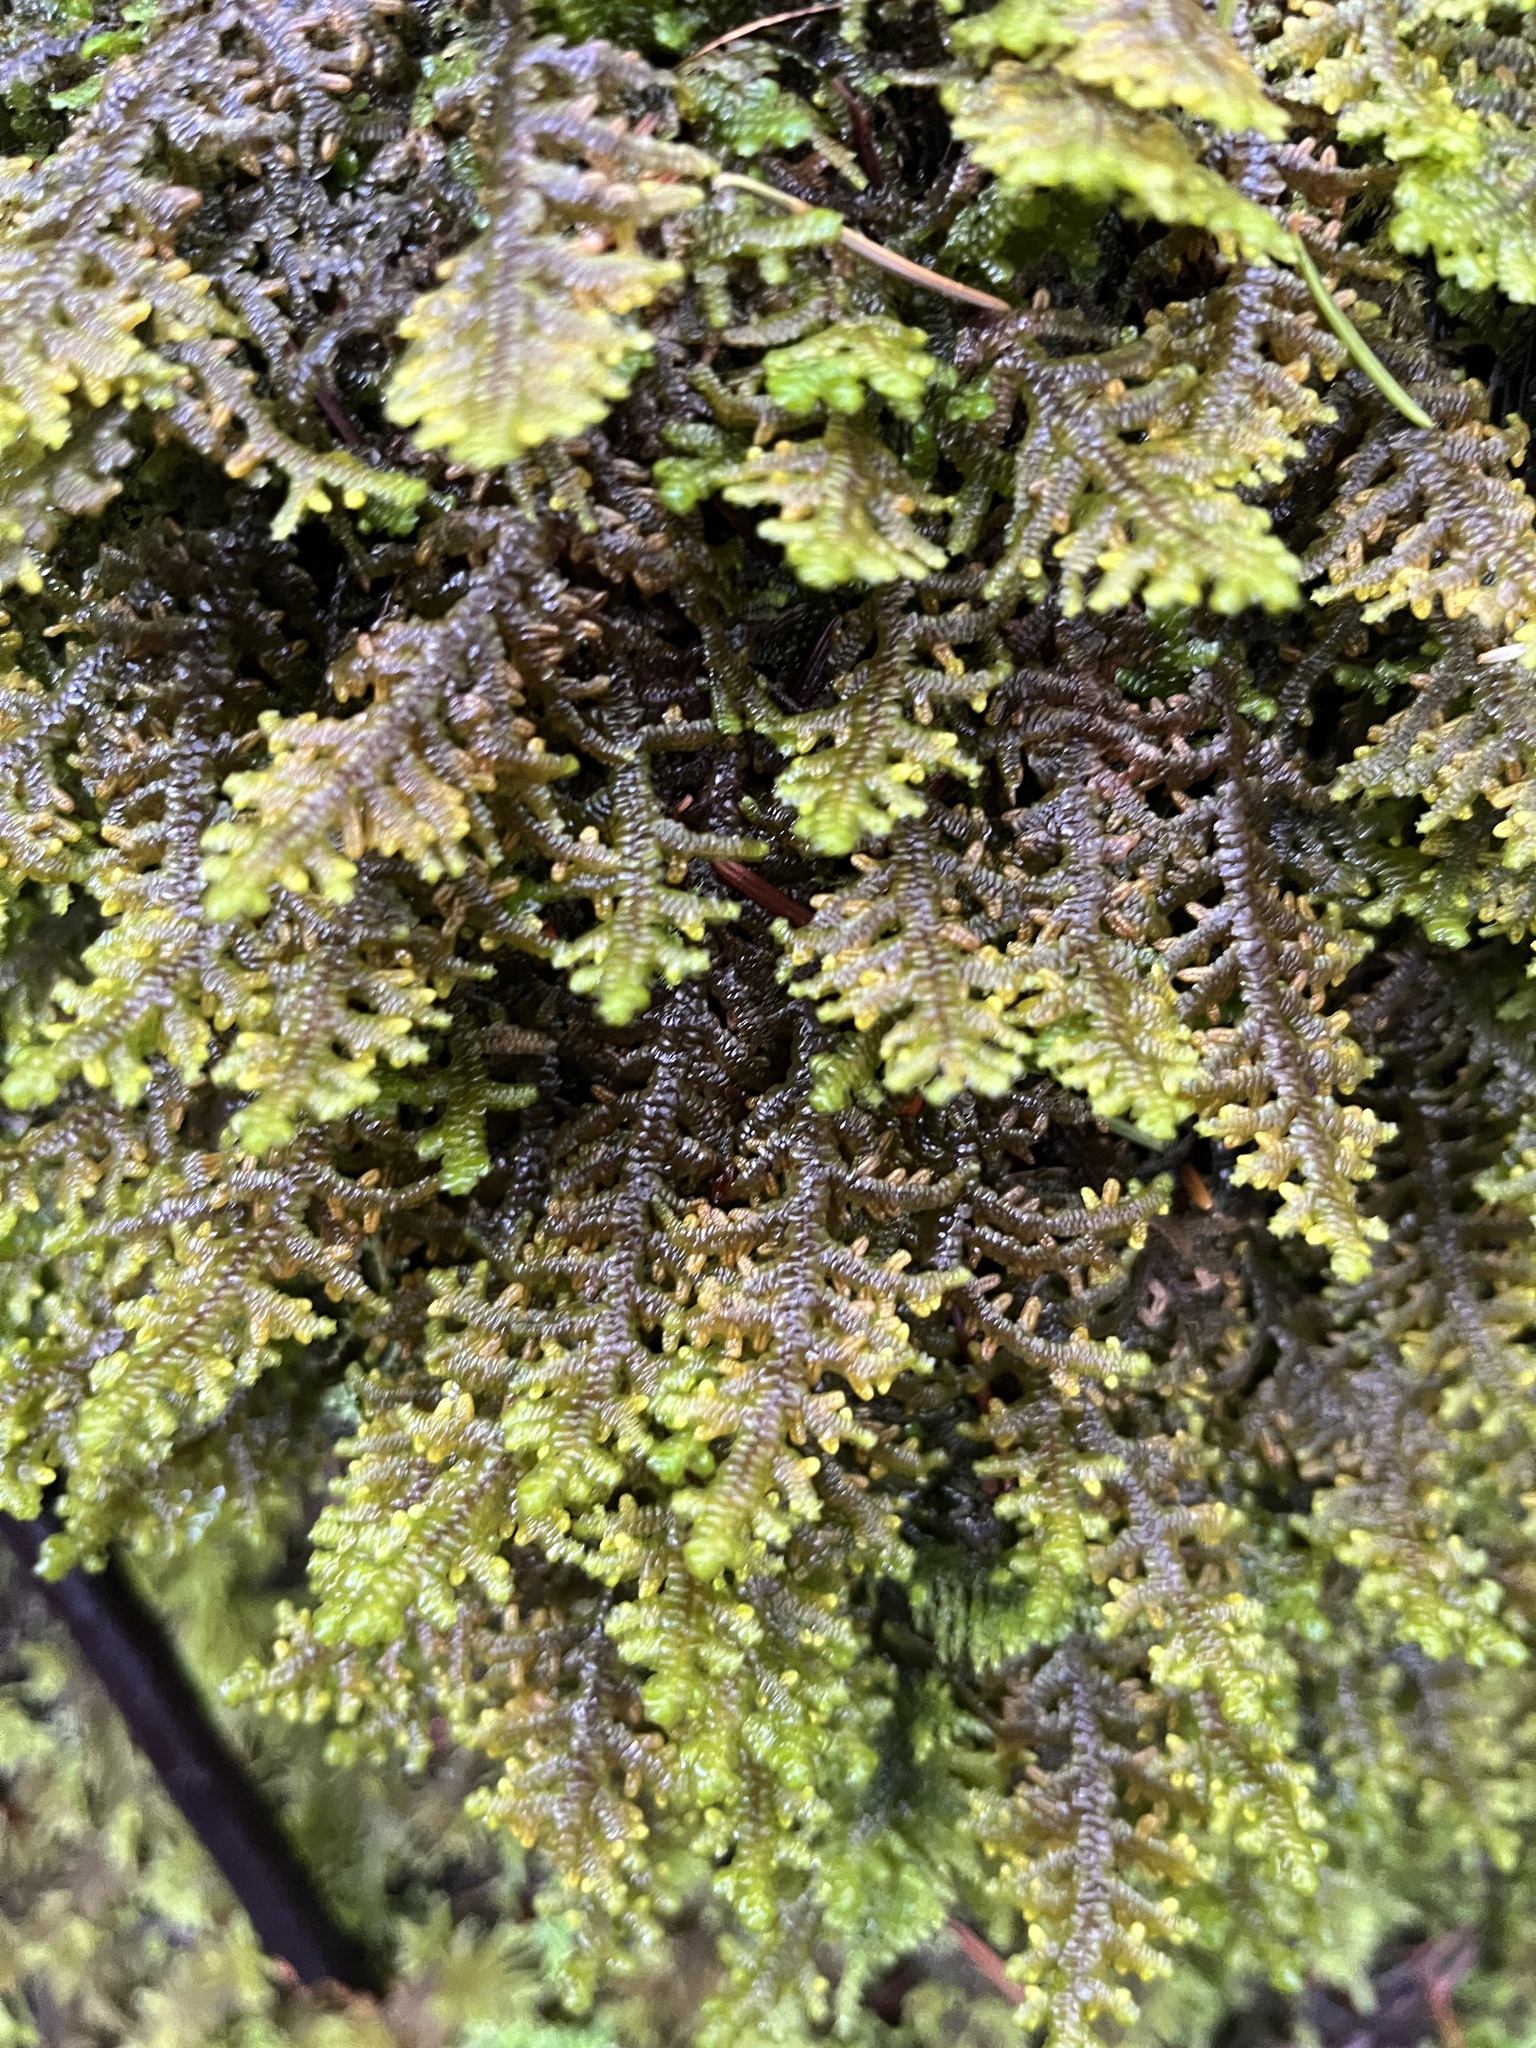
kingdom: Plantae
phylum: Marchantiophyta
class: Jungermanniopsida
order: Porellales
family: Porellaceae
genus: Porella
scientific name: Porella navicularis
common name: Tree ruffle liverwort
